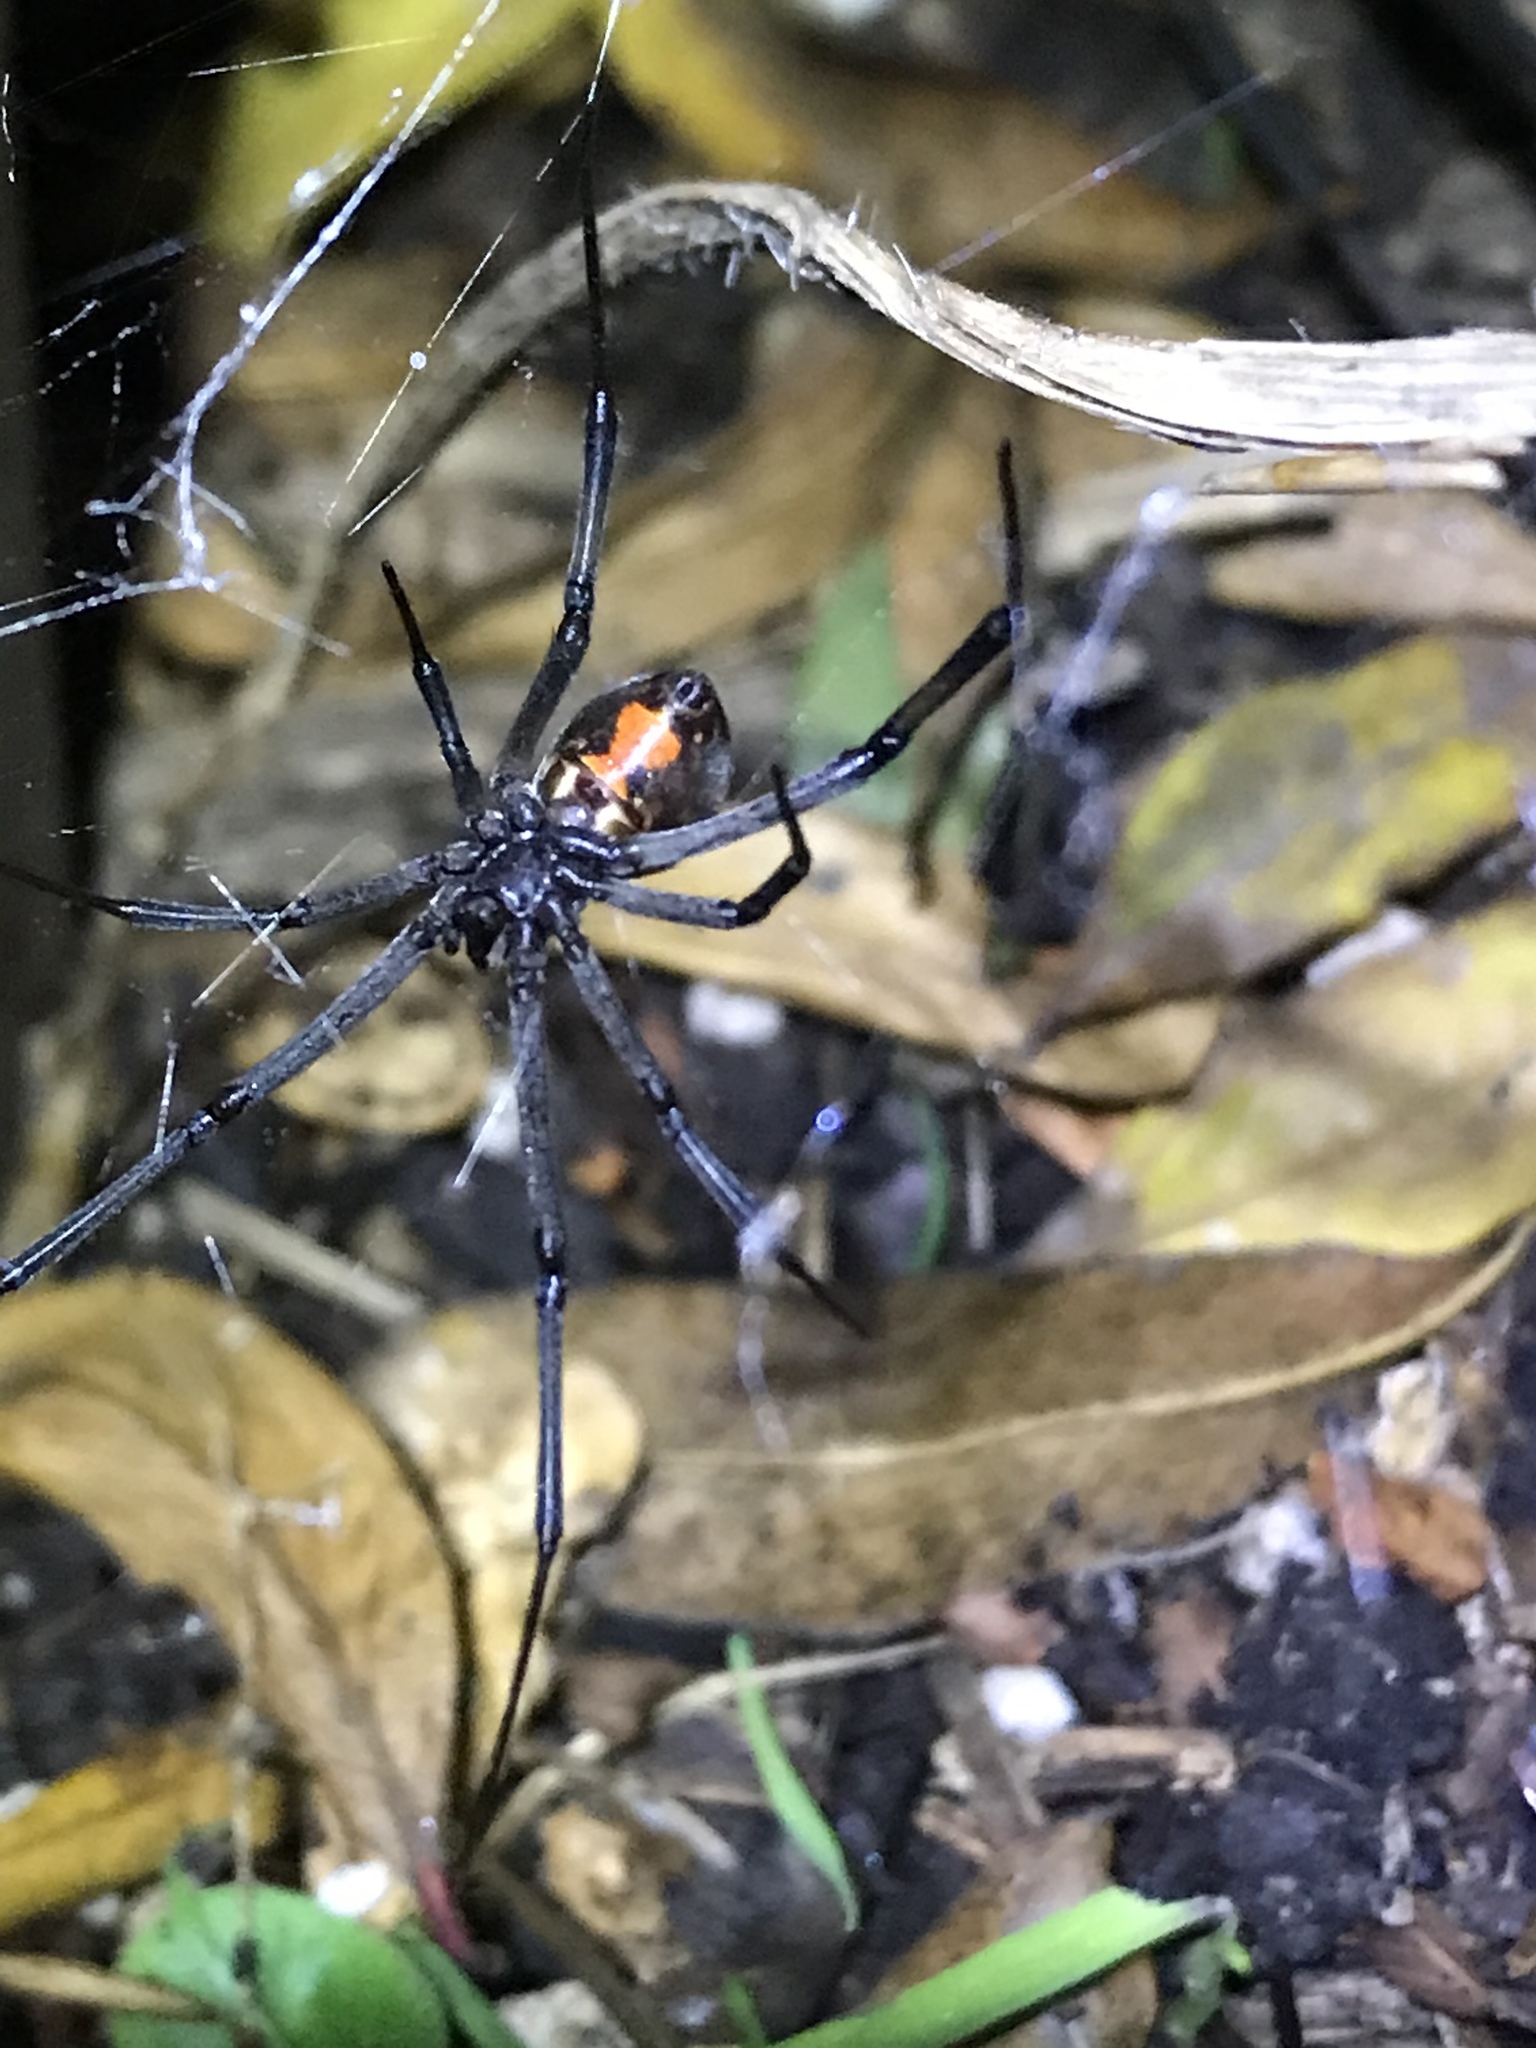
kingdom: Animalia
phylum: Arthropoda
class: Arachnida
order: Araneae
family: Theridiidae
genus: Latrodectus
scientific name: Latrodectus geometricus
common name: Brown widow spider
